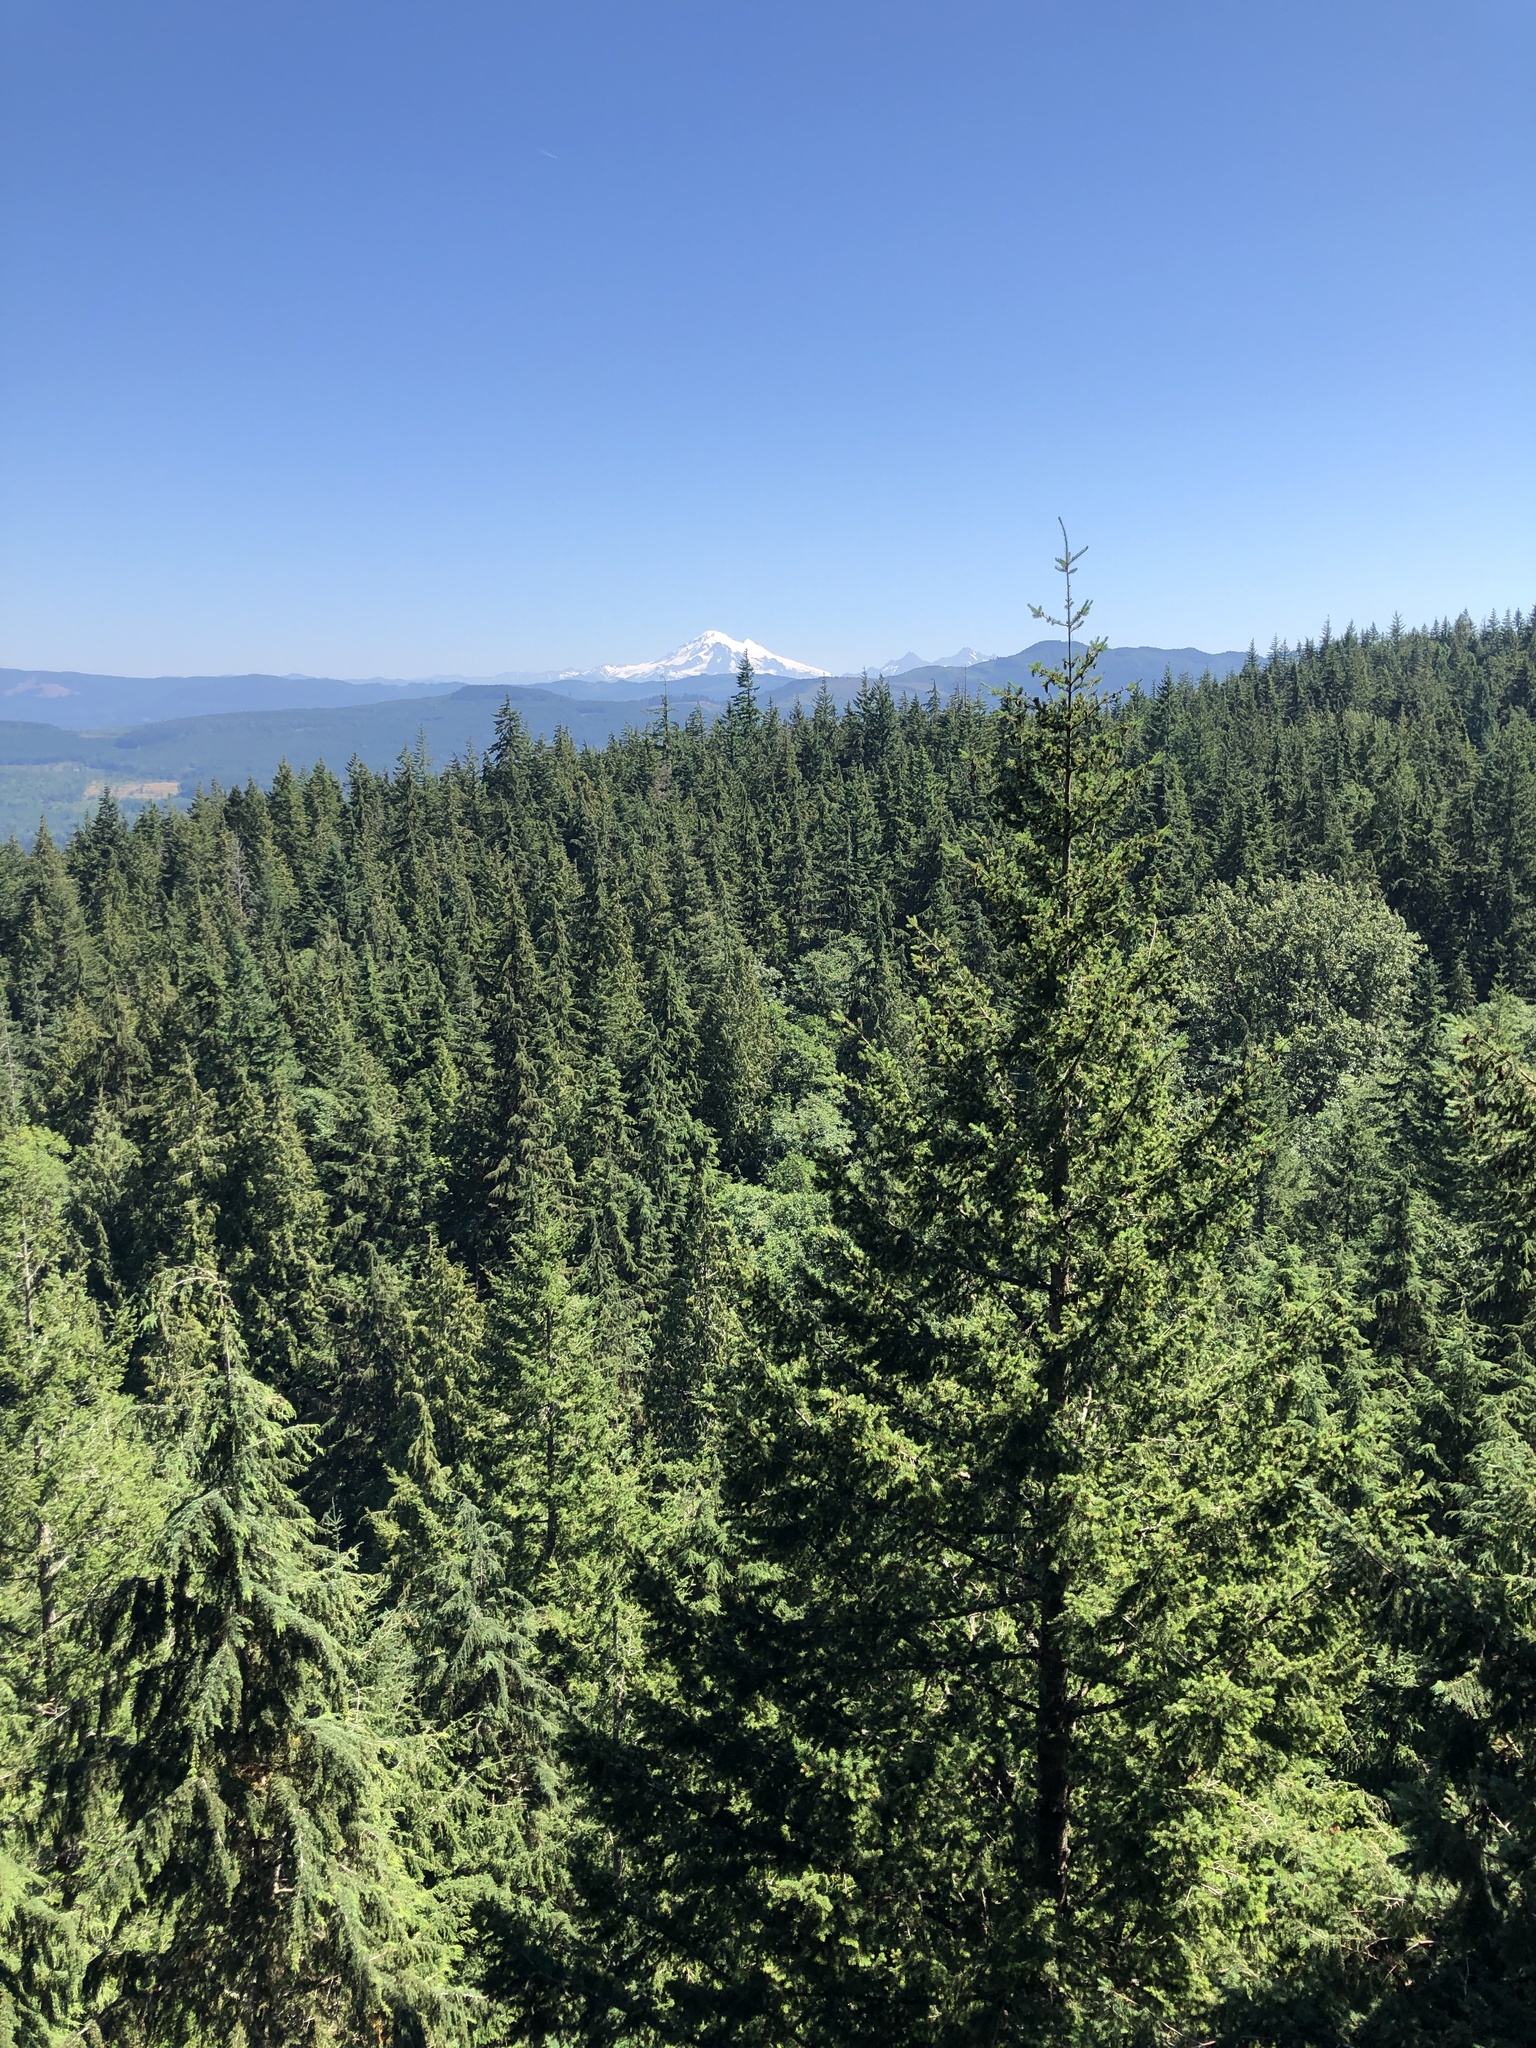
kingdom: Plantae
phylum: Tracheophyta
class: Pinopsida
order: Pinales
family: Pinaceae
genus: Pseudotsuga
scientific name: Pseudotsuga menziesii
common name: Douglas fir
